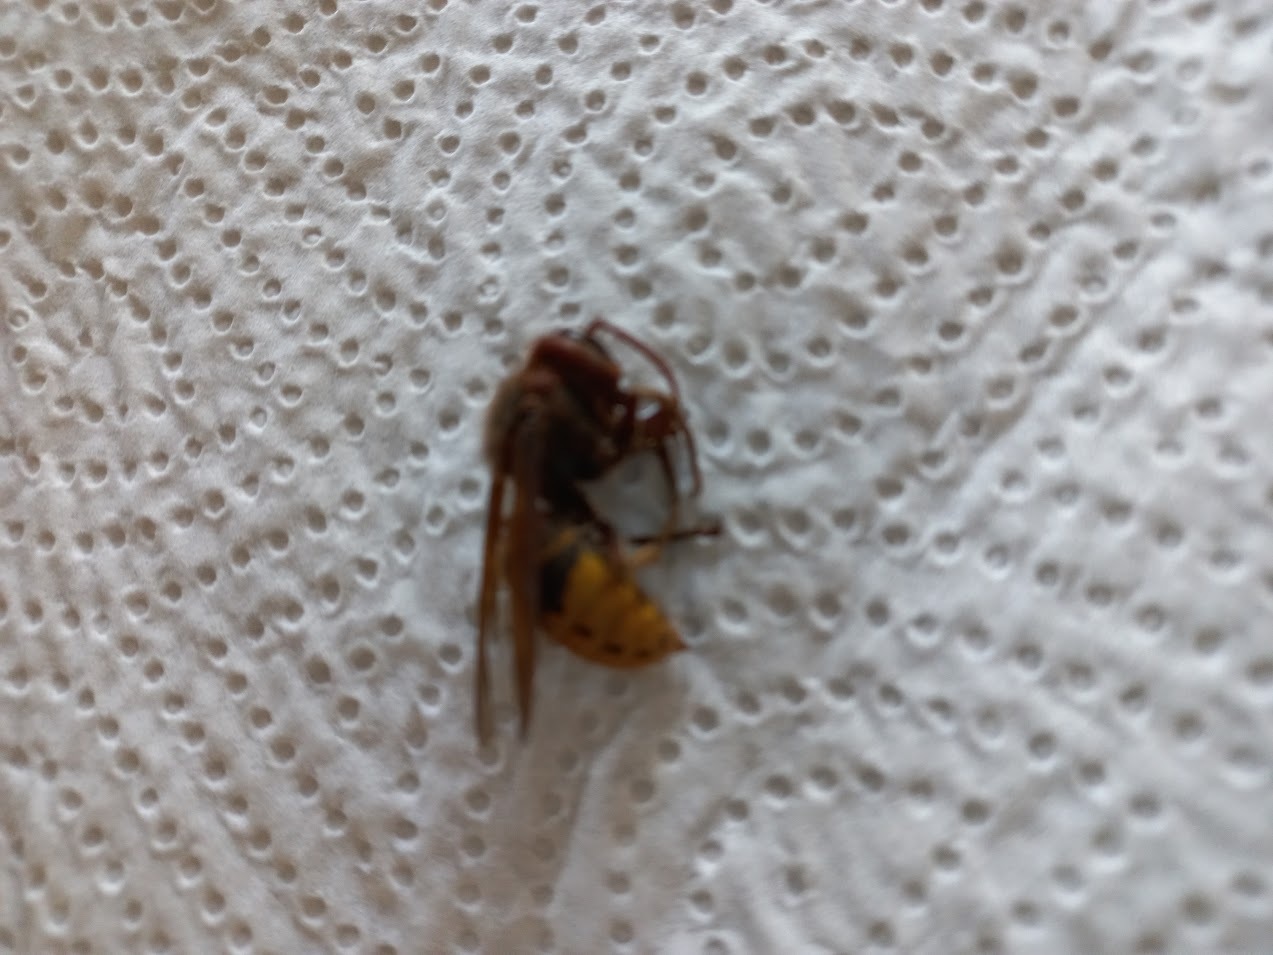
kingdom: Animalia
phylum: Arthropoda
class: Insecta
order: Hymenoptera
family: Vespidae
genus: Vespa
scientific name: Vespa crabro
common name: Hornet
